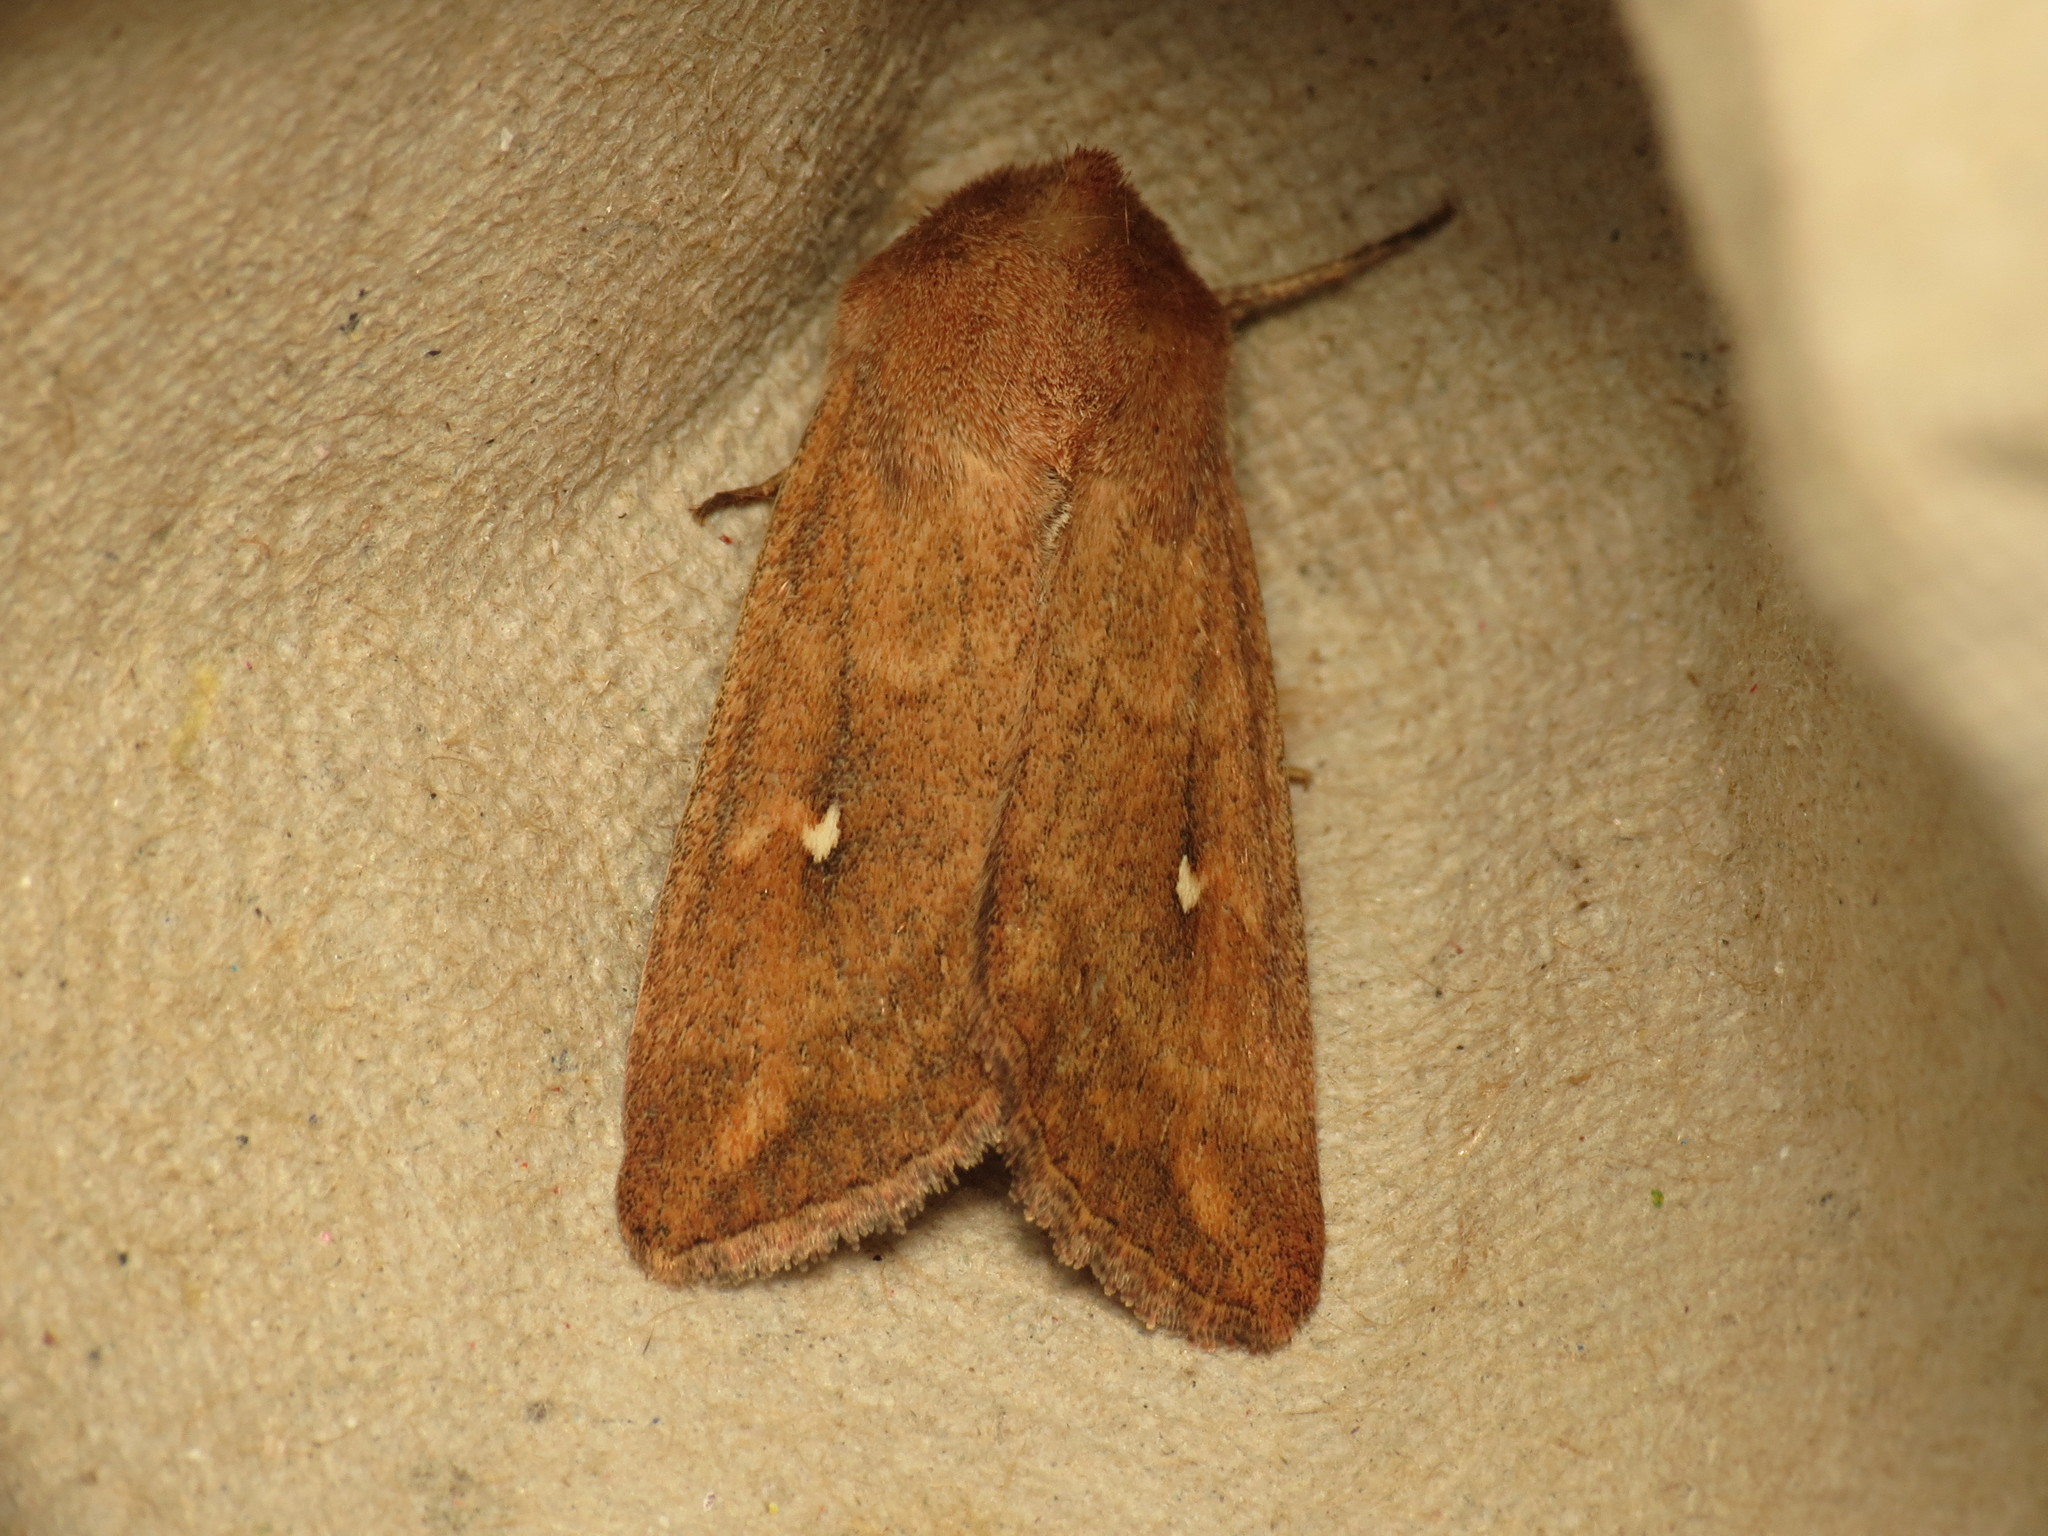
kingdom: Animalia
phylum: Arthropoda
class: Insecta
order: Lepidoptera
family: Noctuidae
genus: Mythimna
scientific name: Mythimna albipuncta
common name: White-point
